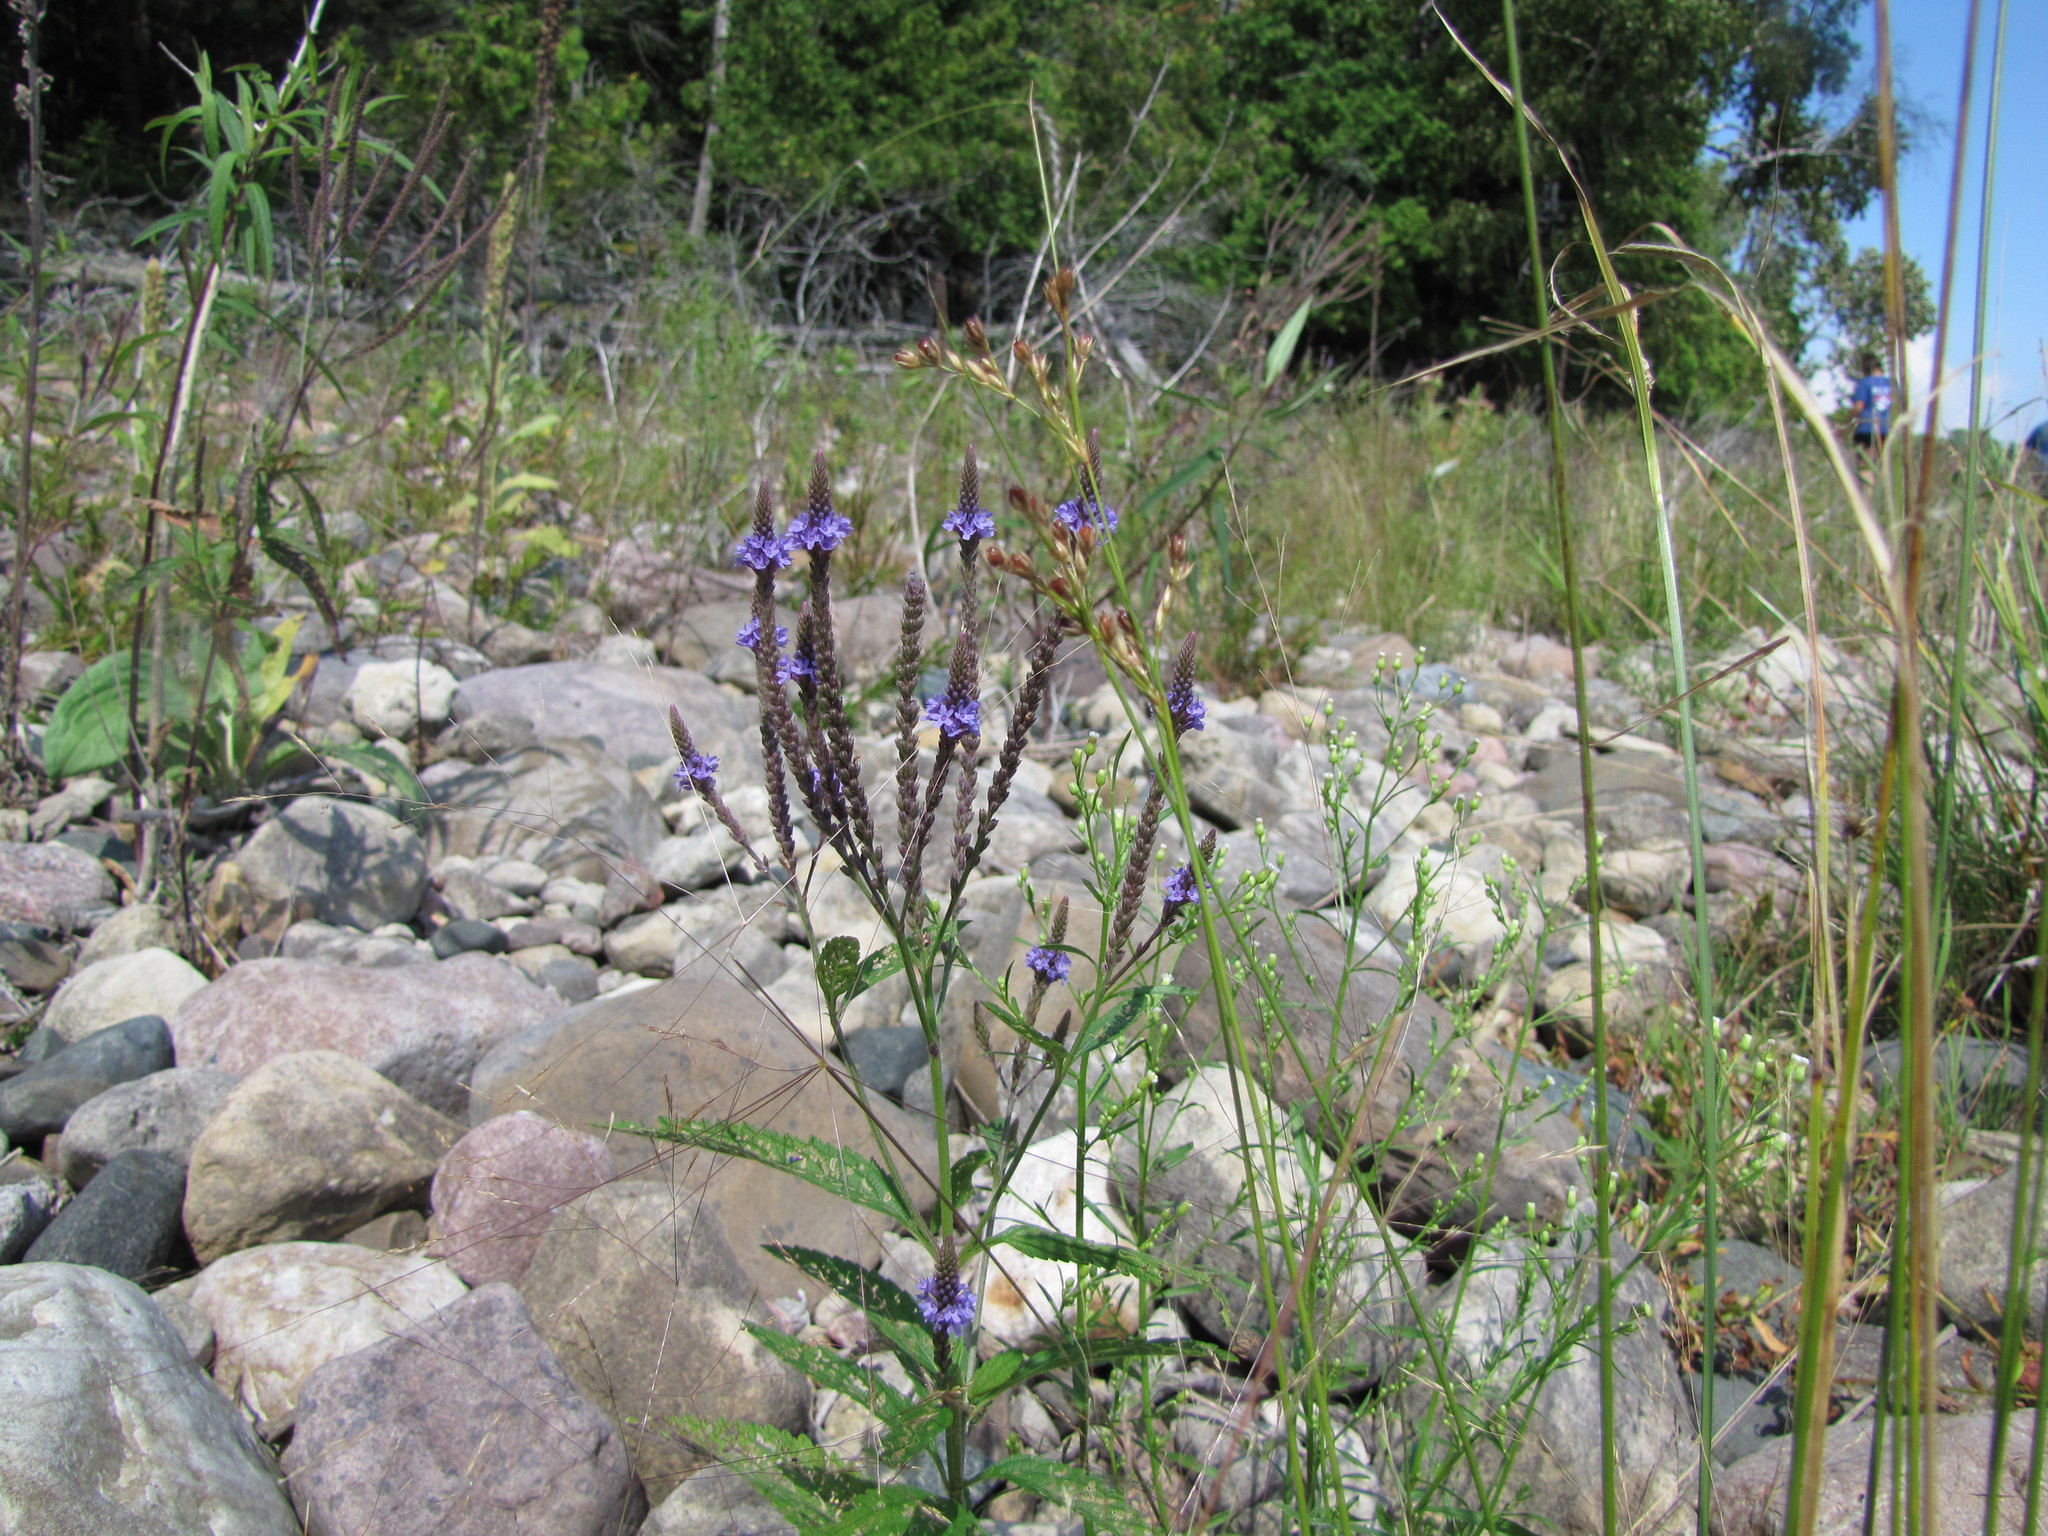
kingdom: Plantae
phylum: Tracheophyta
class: Magnoliopsida
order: Lamiales
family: Verbenaceae
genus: Verbena
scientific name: Verbena hastata
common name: American blue vervain
